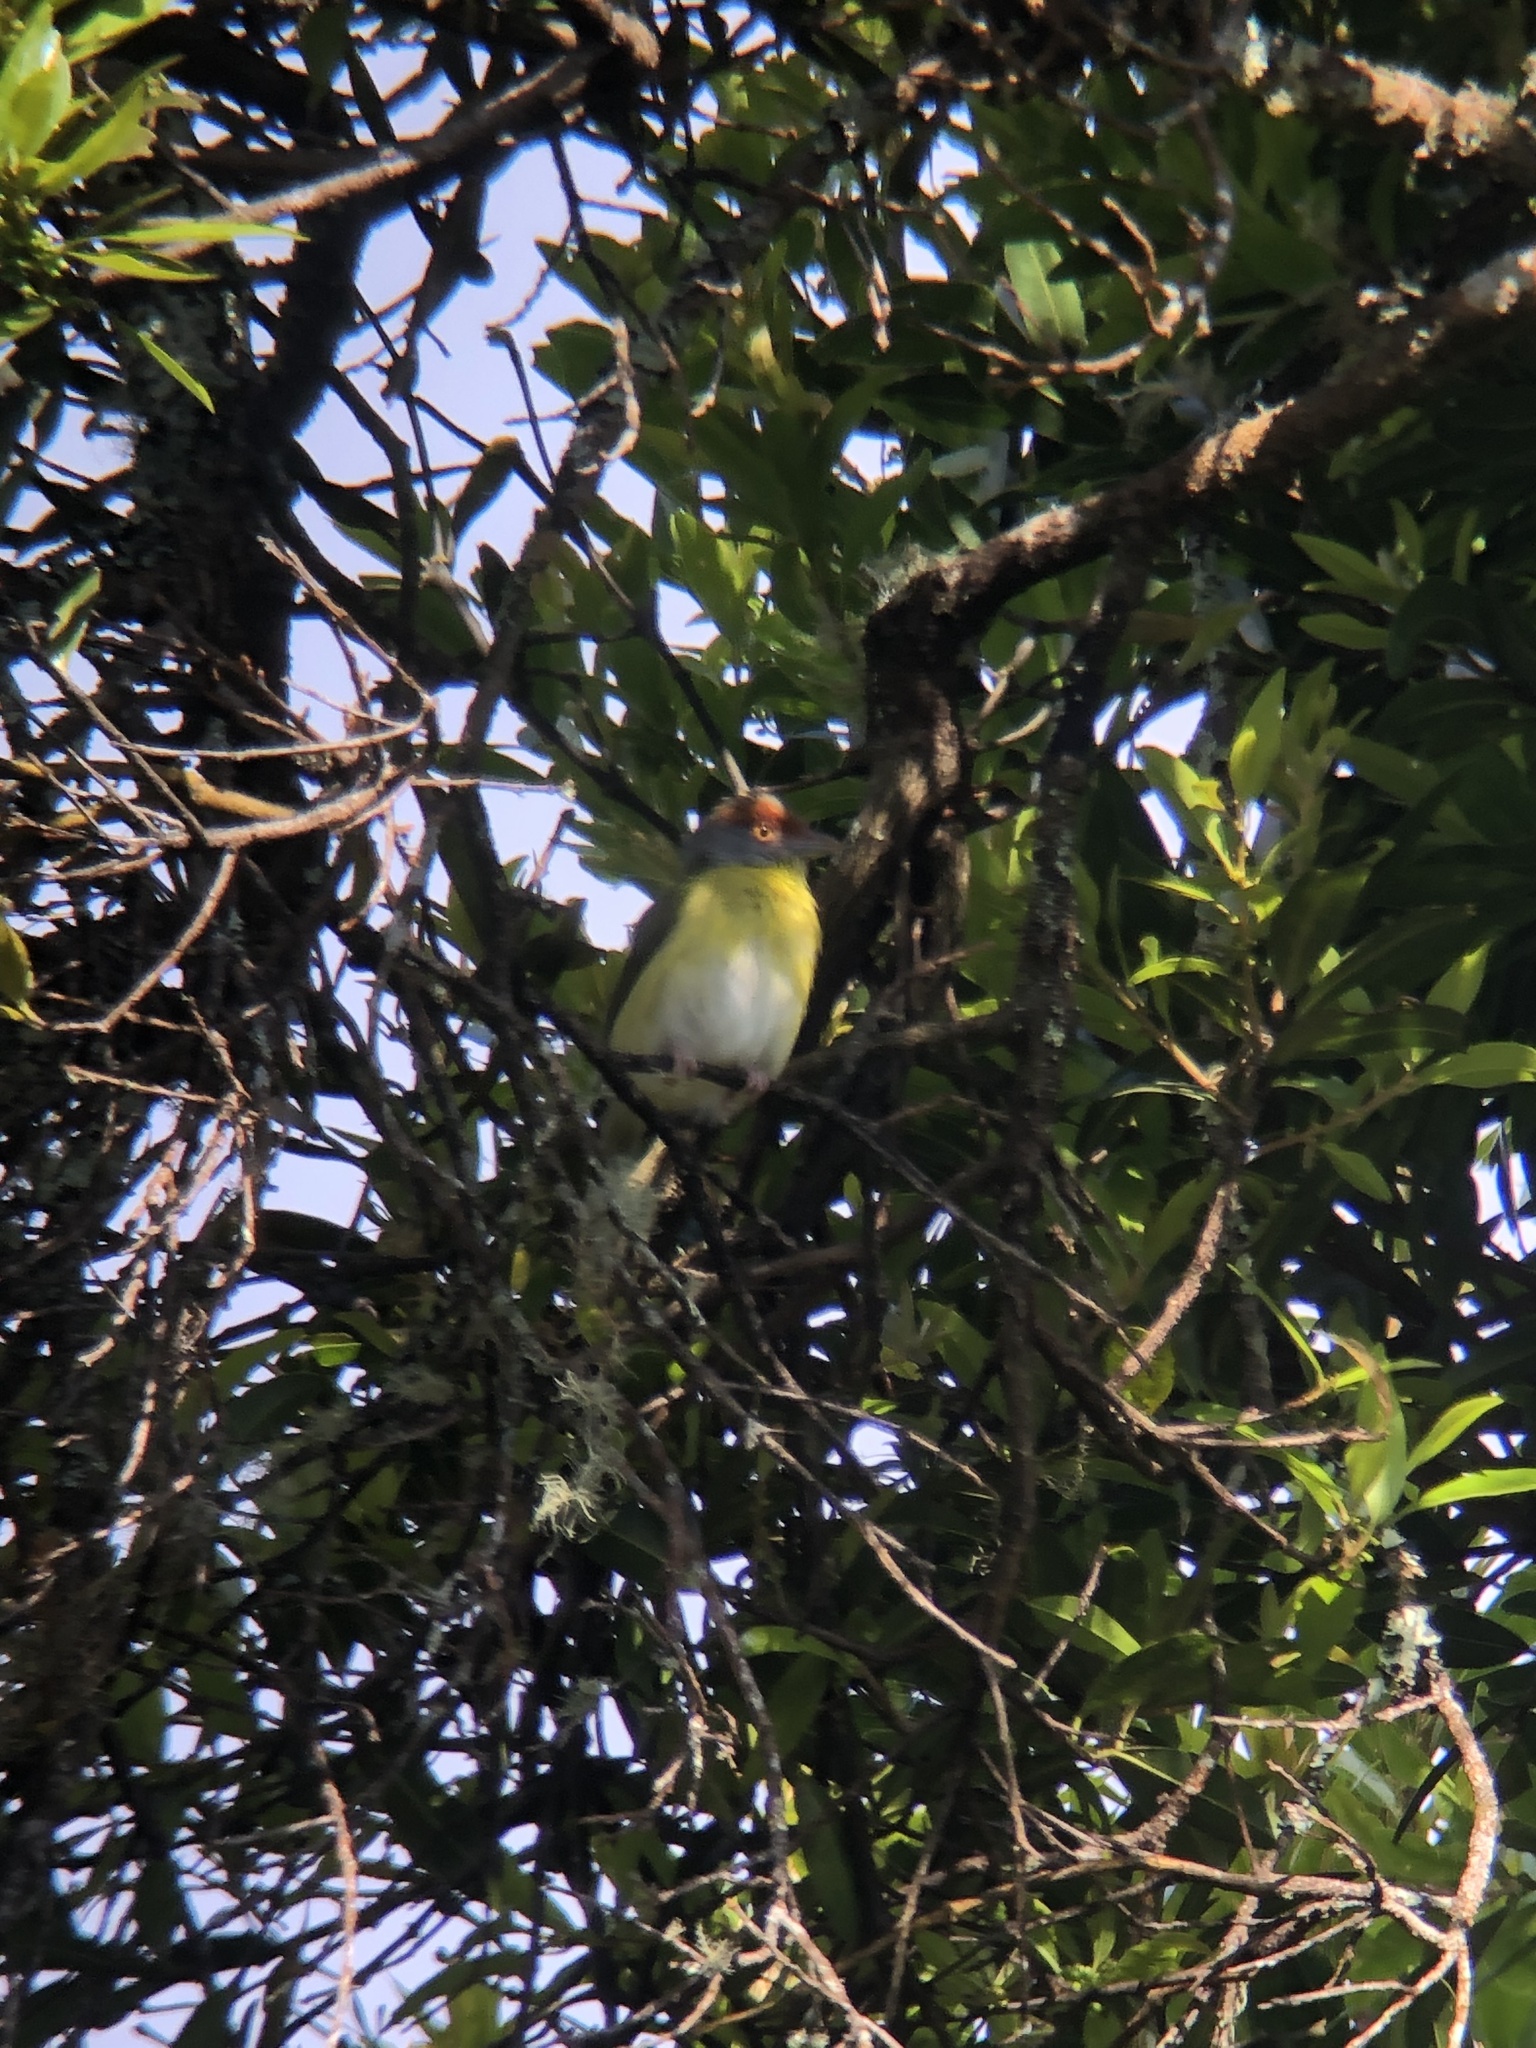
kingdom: Animalia
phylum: Chordata
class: Aves
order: Passeriformes
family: Vireonidae
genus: Cyclarhis
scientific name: Cyclarhis gujanensis
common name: Rufous-browed peppershrike
